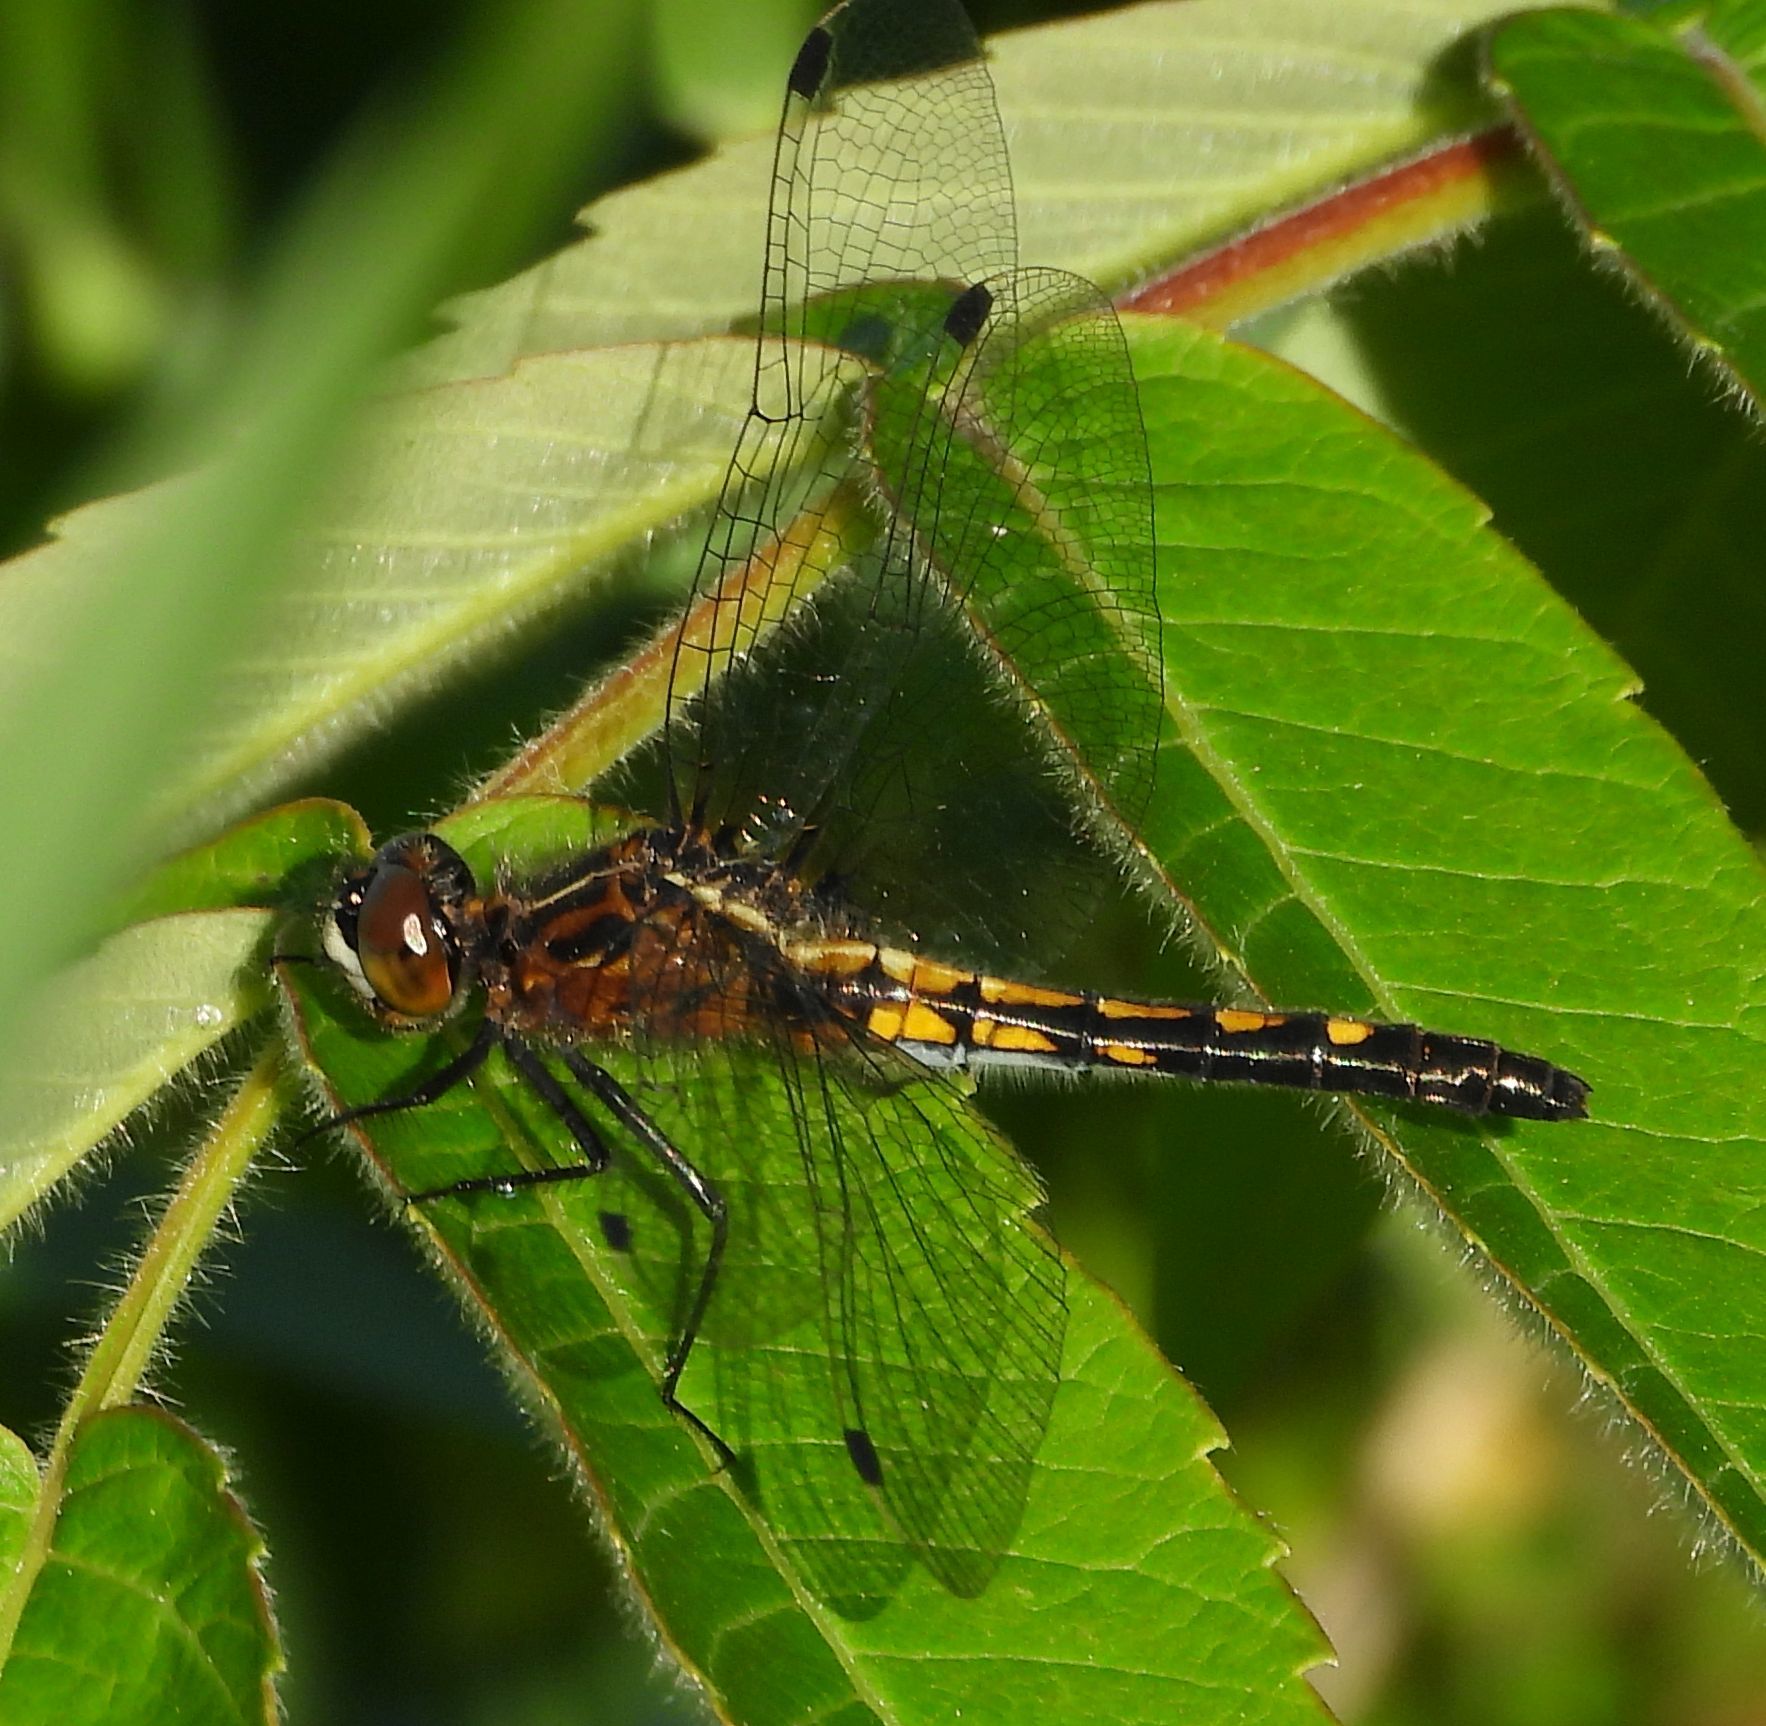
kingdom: Animalia
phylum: Arthropoda
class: Insecta
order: Odonata
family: Libellulidae
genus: Leucorrhinia
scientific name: Leucorrhinia intacta
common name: Dot-tailed whiteface
